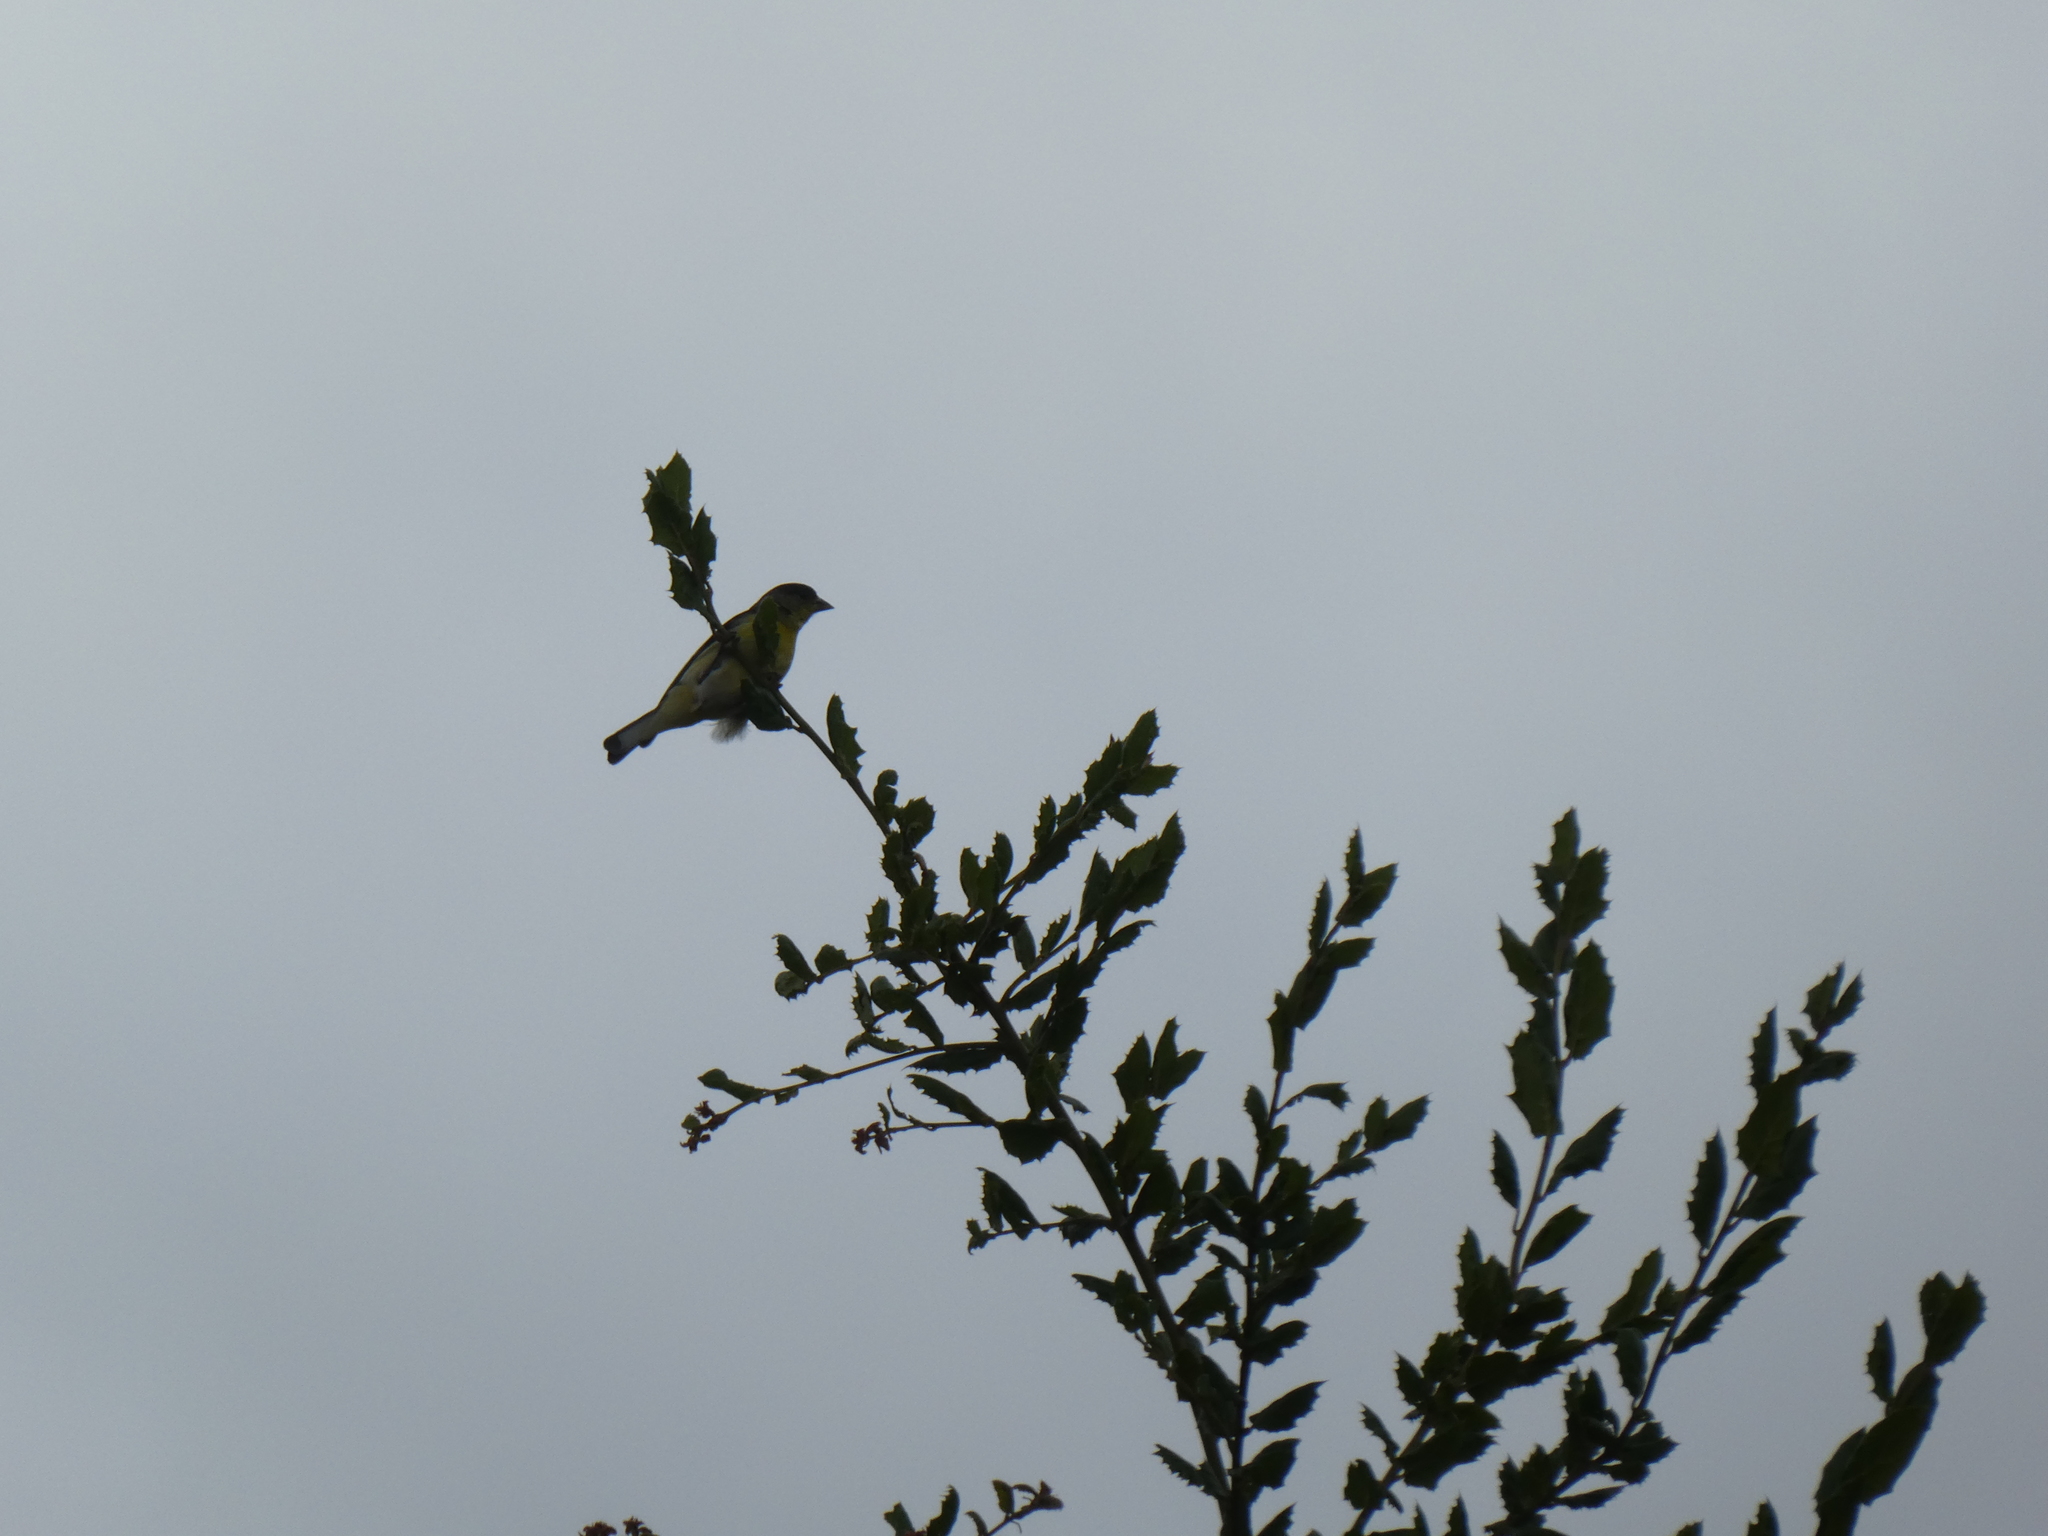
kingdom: Animalia
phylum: Chordata
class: Aves
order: Passeriformes
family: Fringillidae
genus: Spinus
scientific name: Spinus psaltria
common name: Lesser goldfinch
